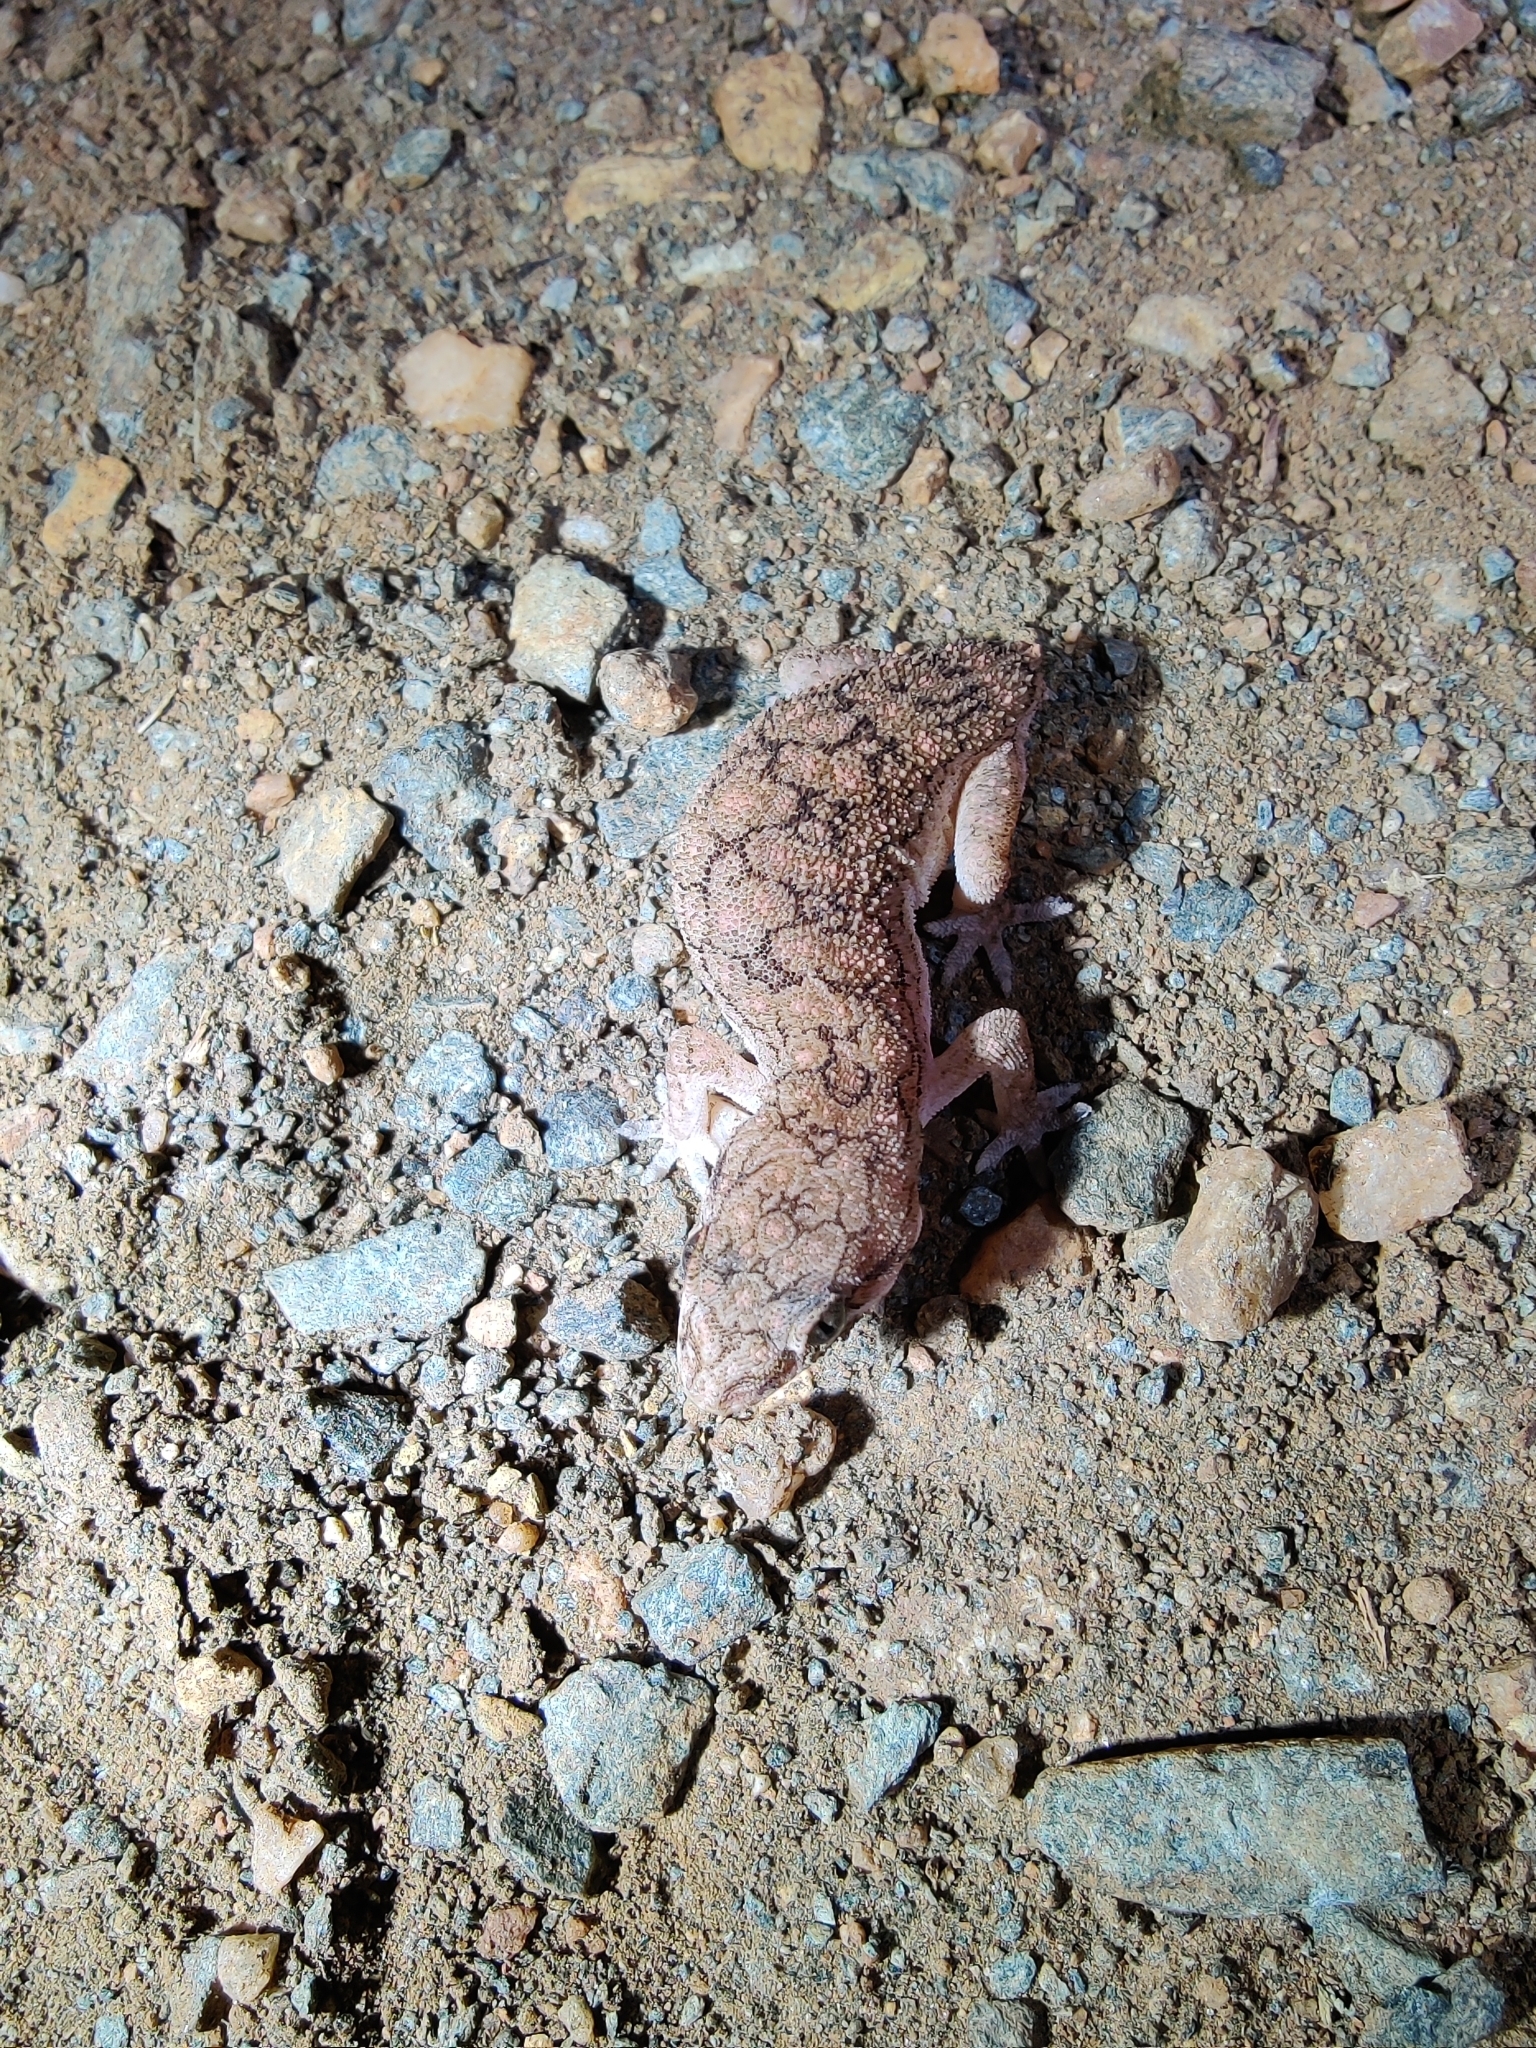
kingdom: Animalia
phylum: Chordata
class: Squamata
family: Gekkonidae
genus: Hemidactylus
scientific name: Hemidactylus reticulatus
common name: Reticulate leaf-toed gecko
